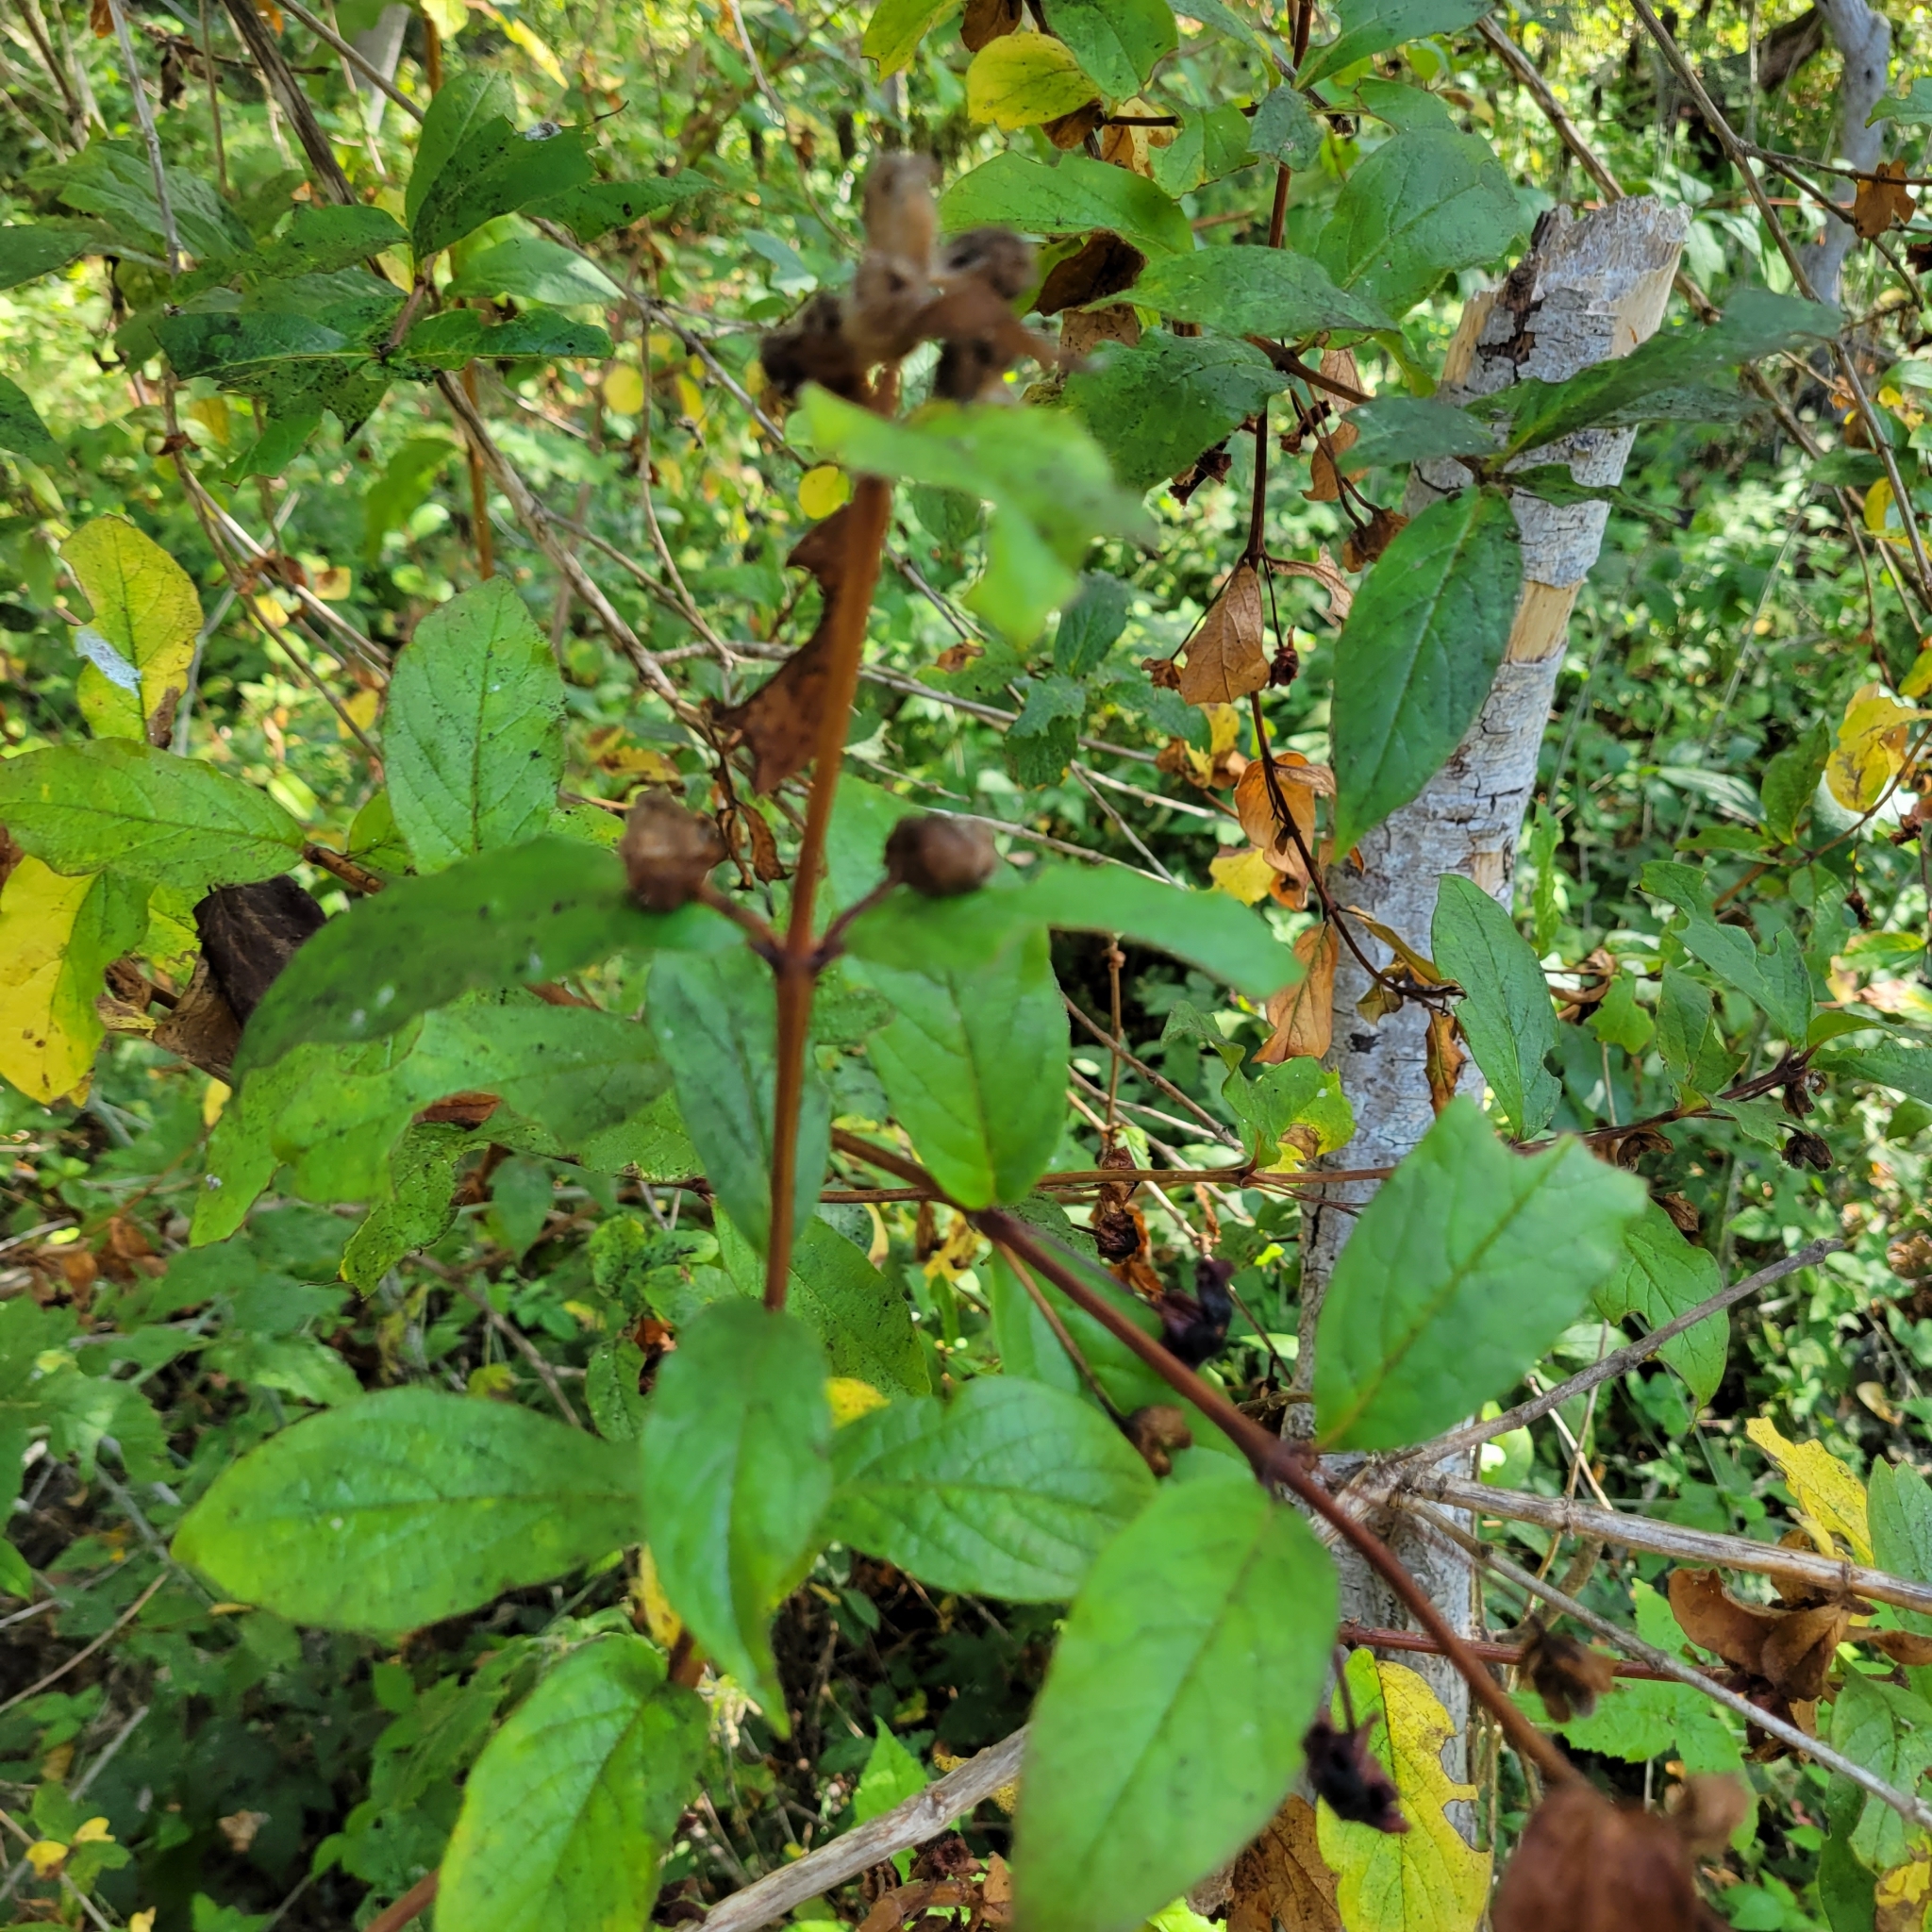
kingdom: Plantae
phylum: Tracheophyta
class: Magnoliopsida
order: Dipsacales
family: Caprifoliaceae
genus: Lonicera
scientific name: Lonicera involucrata
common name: Californian honeysuckle
